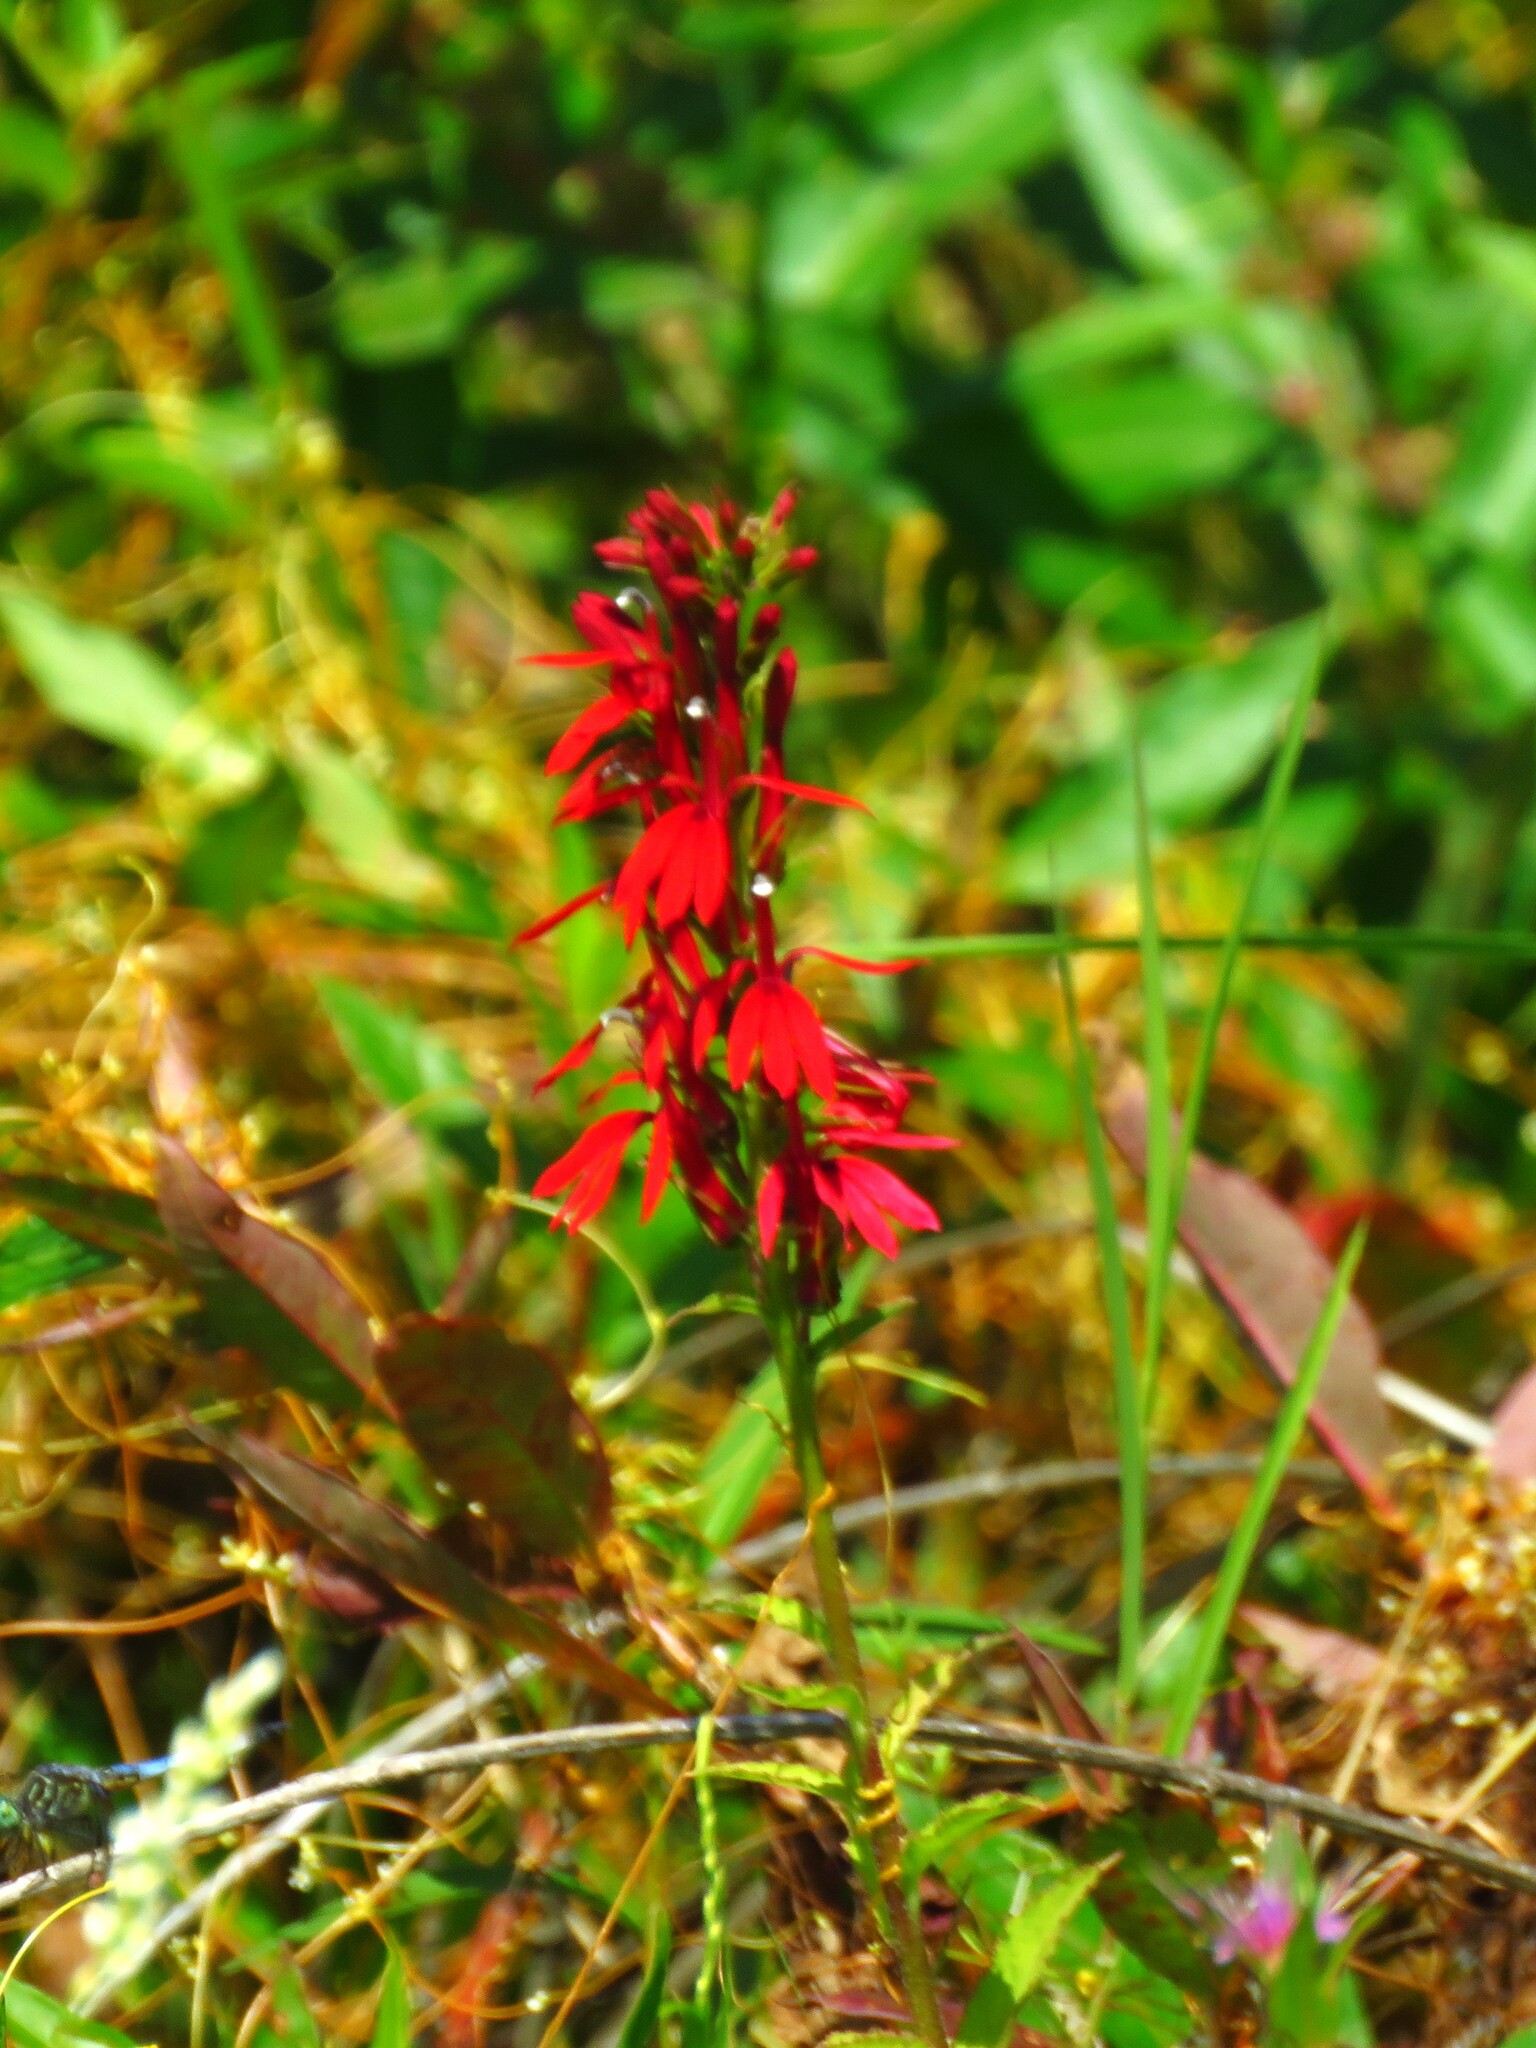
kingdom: Plantae
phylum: Tracheophyta
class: Magnoliopsida
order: Asterales
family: Campanulaceae
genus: Lobelia
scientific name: Lobelia cardinalis
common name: Cardinal flower
